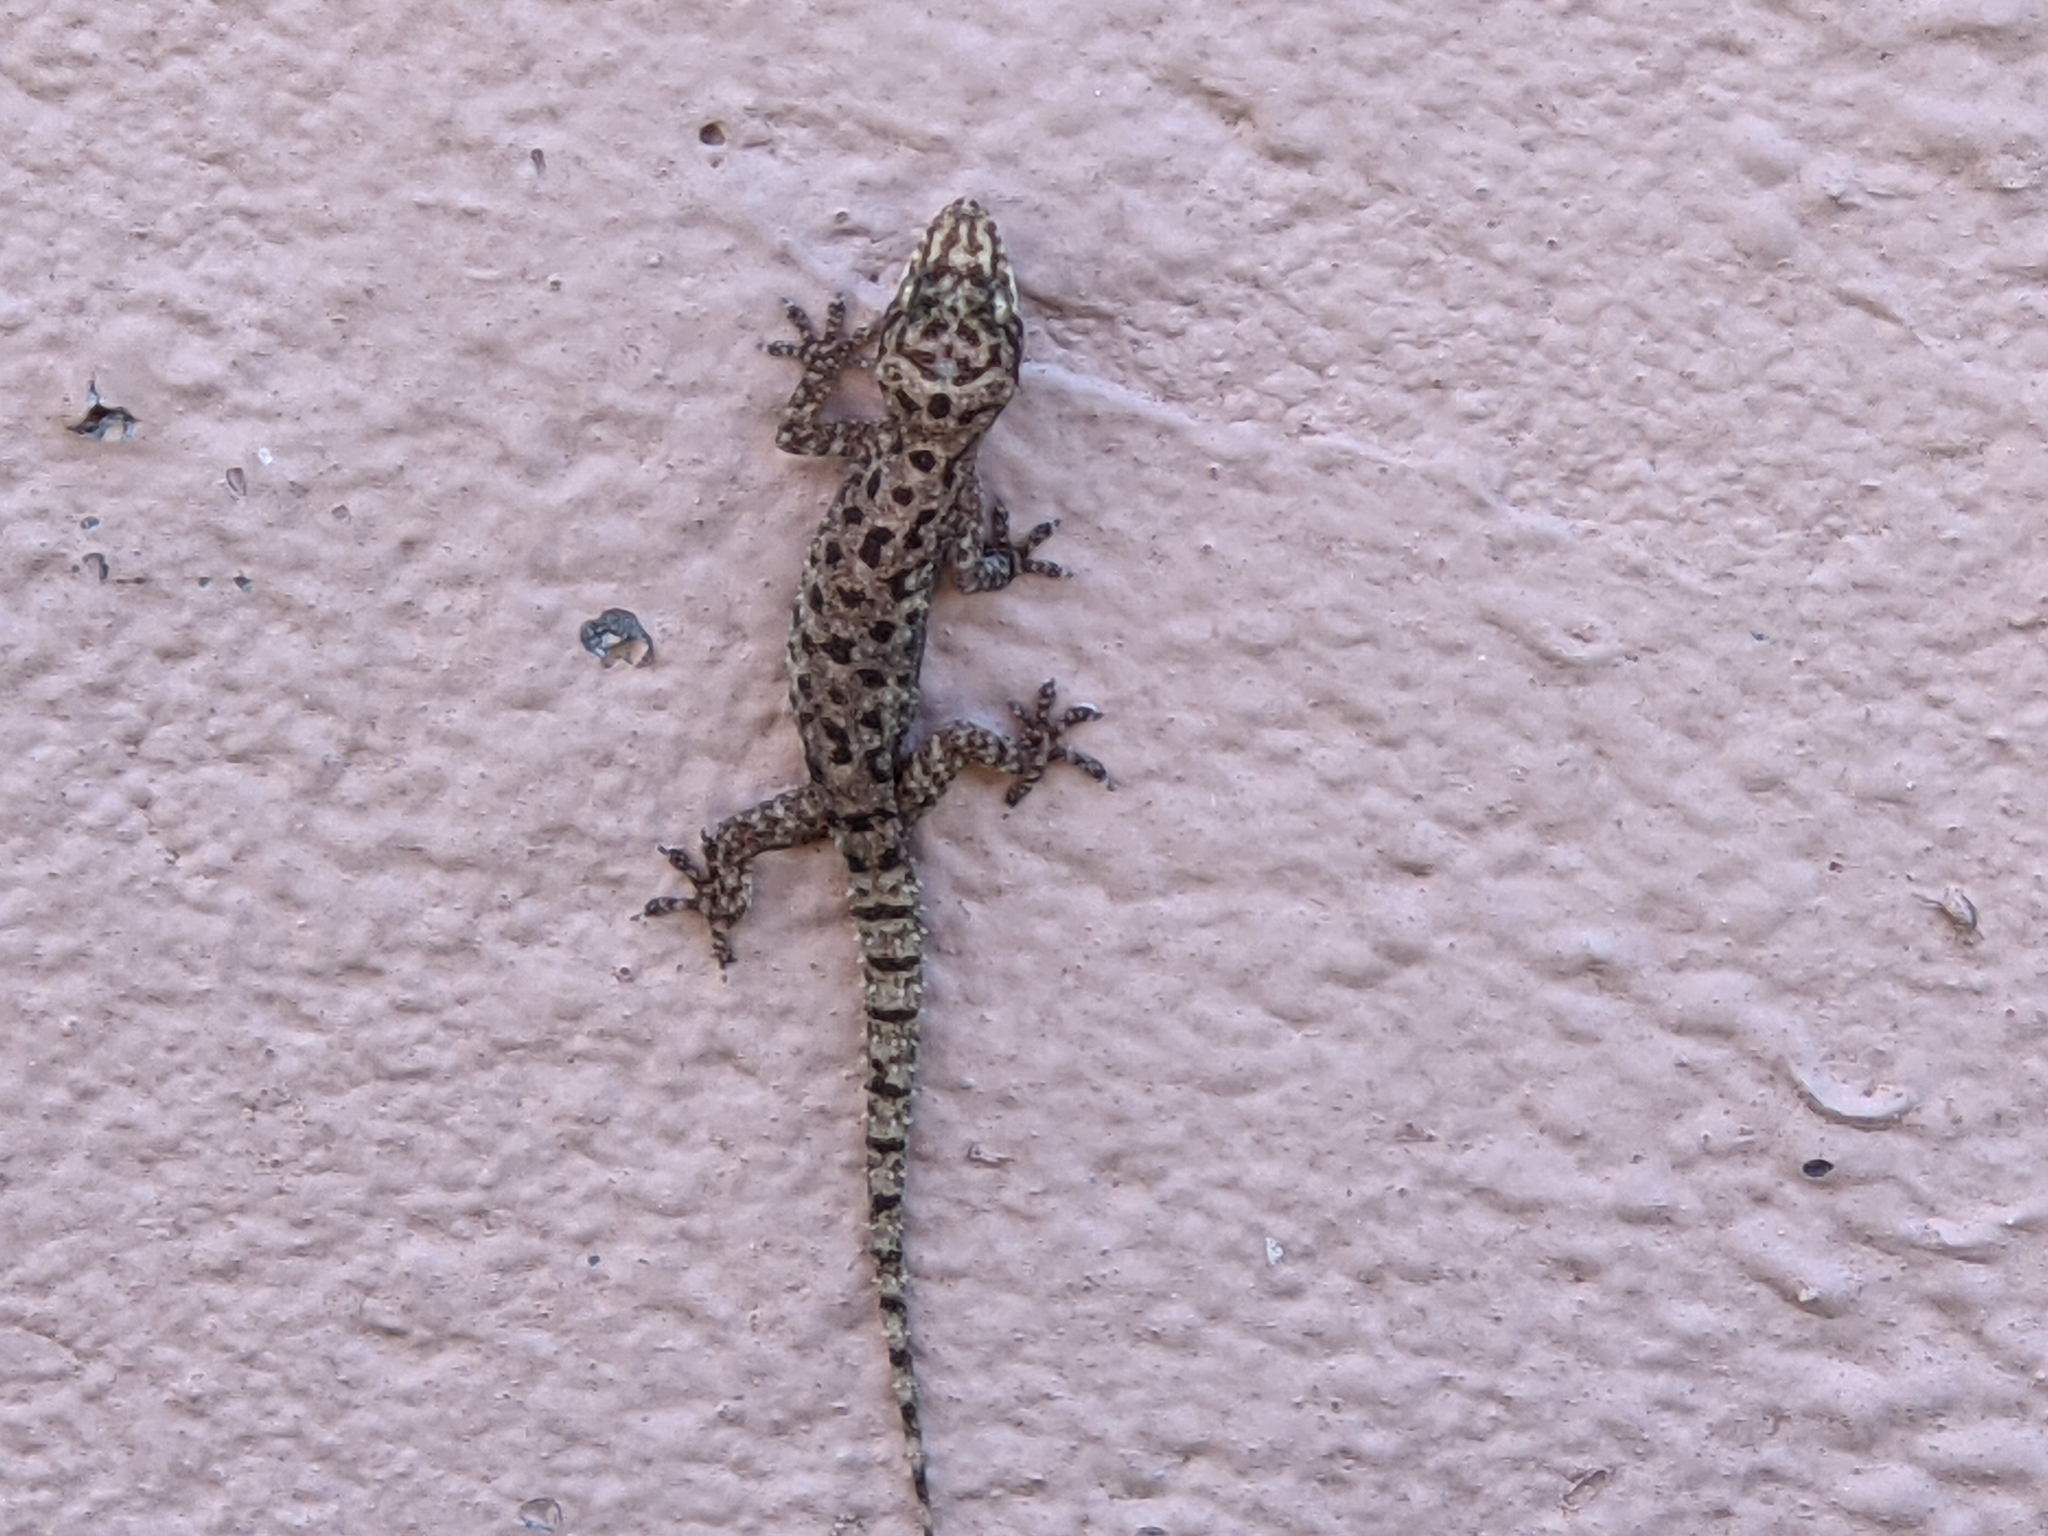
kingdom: Animalia
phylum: Chordata
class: Squamata
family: Gekkonidae
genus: Hemidactylus
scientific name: Hemidactylus parvimaculatus
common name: Spotted house gecko
